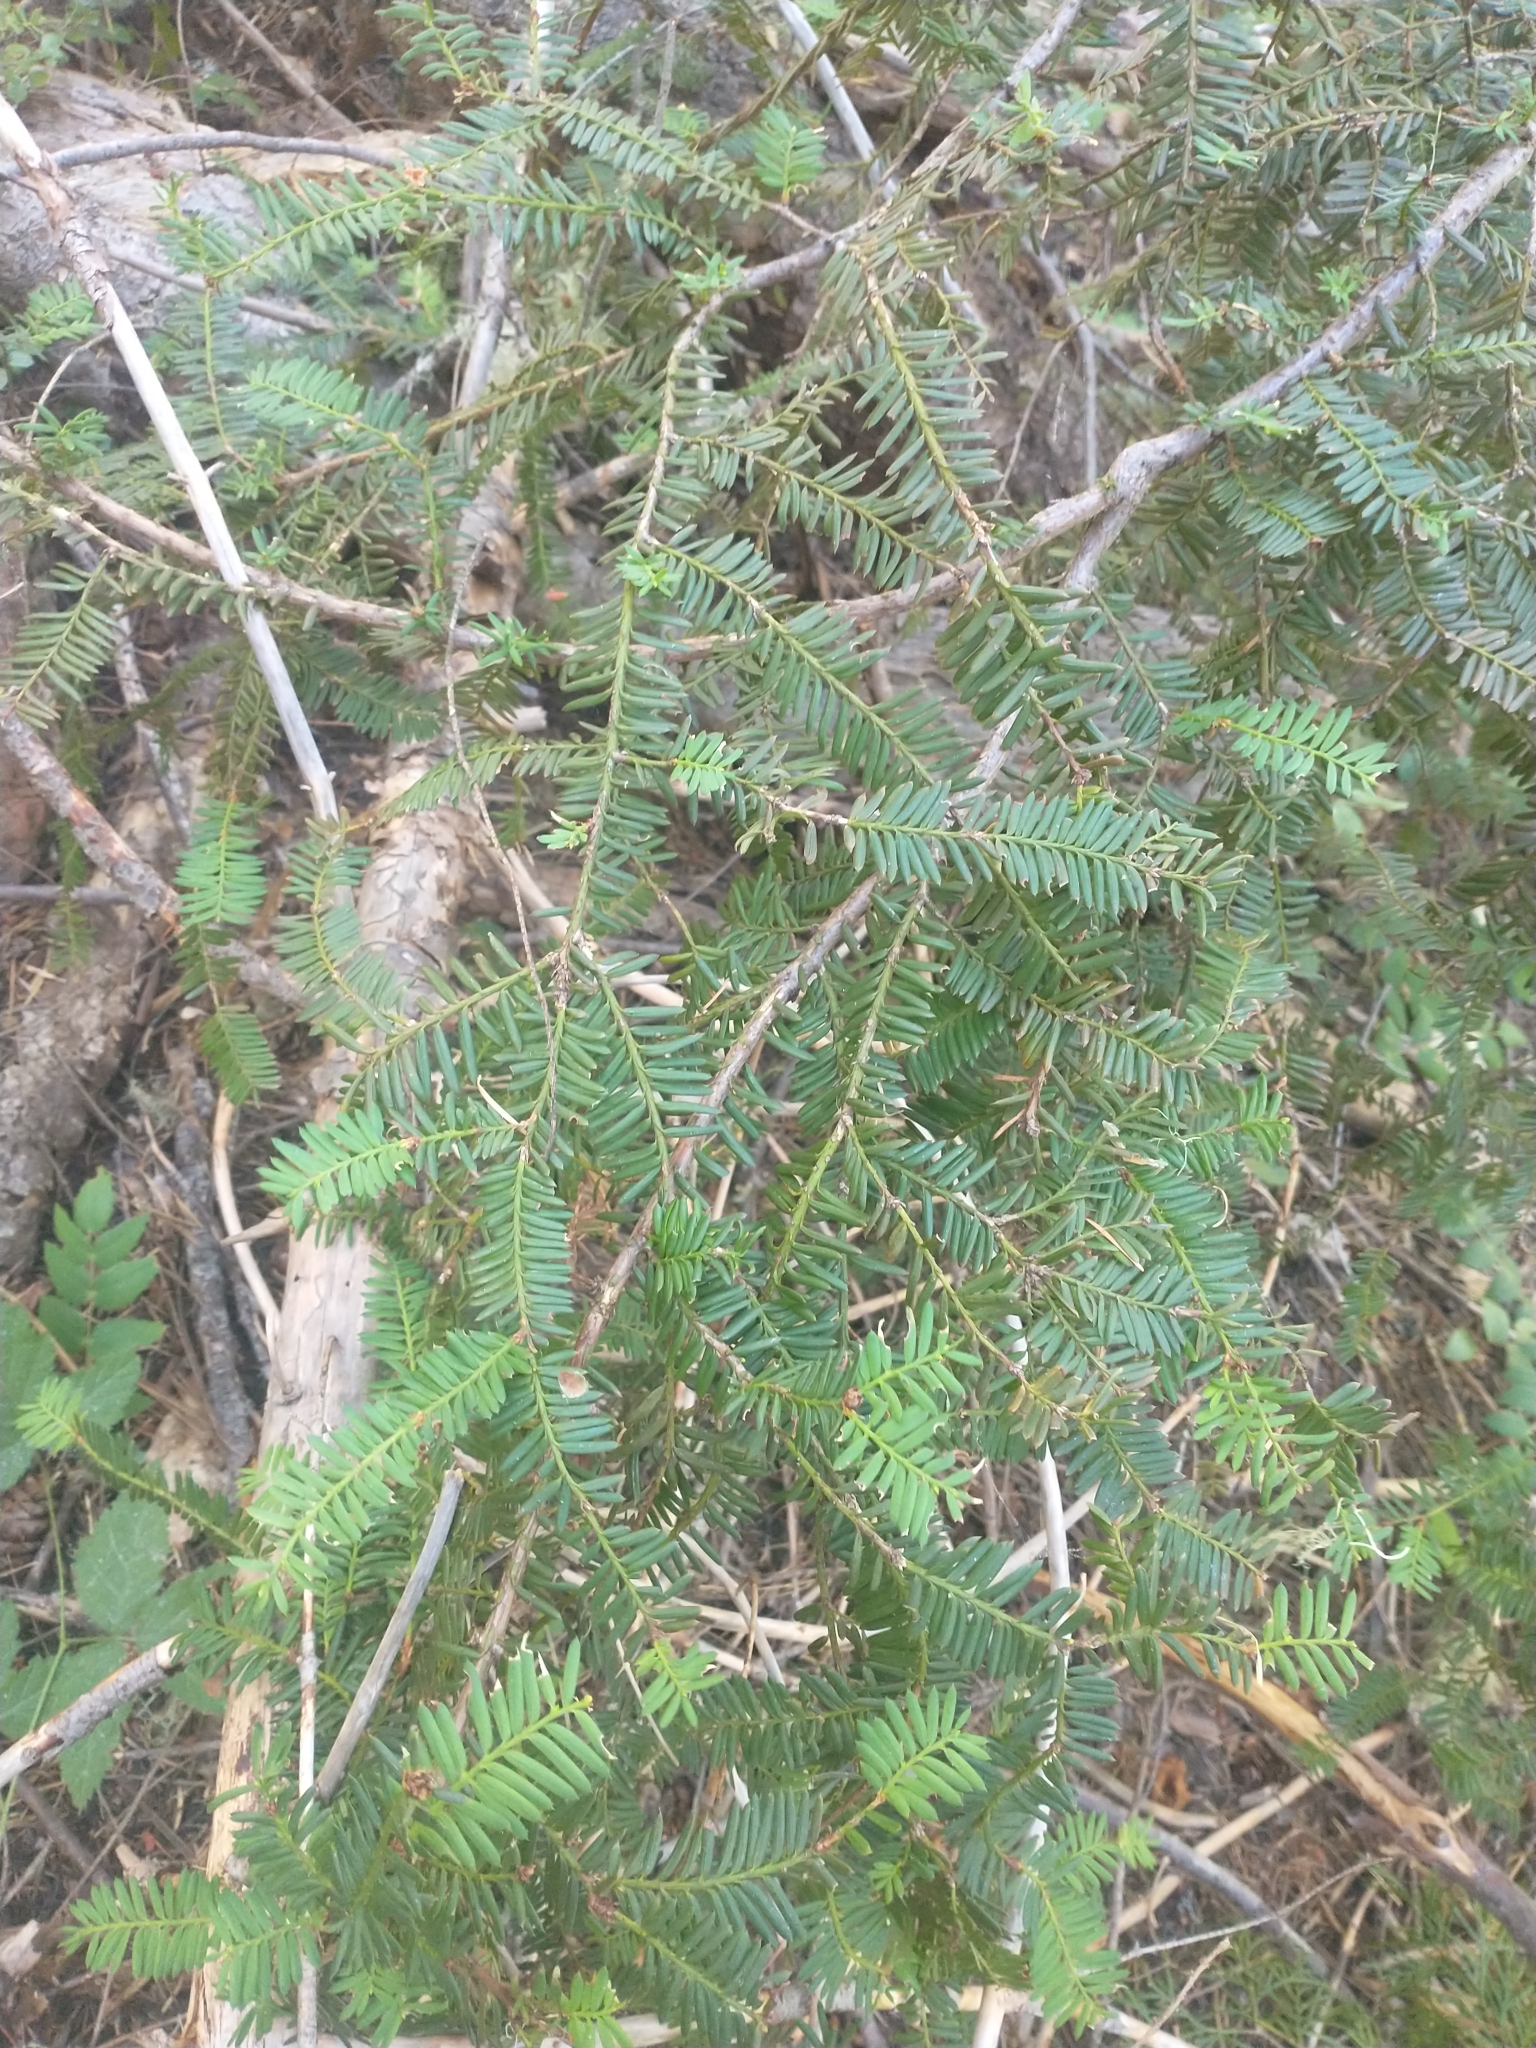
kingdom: Plantae
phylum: Tracheophyta
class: Pinopsida
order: Pinales
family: Taxaceae
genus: Taxus
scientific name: Taxus brevifolia
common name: Pacific yew
